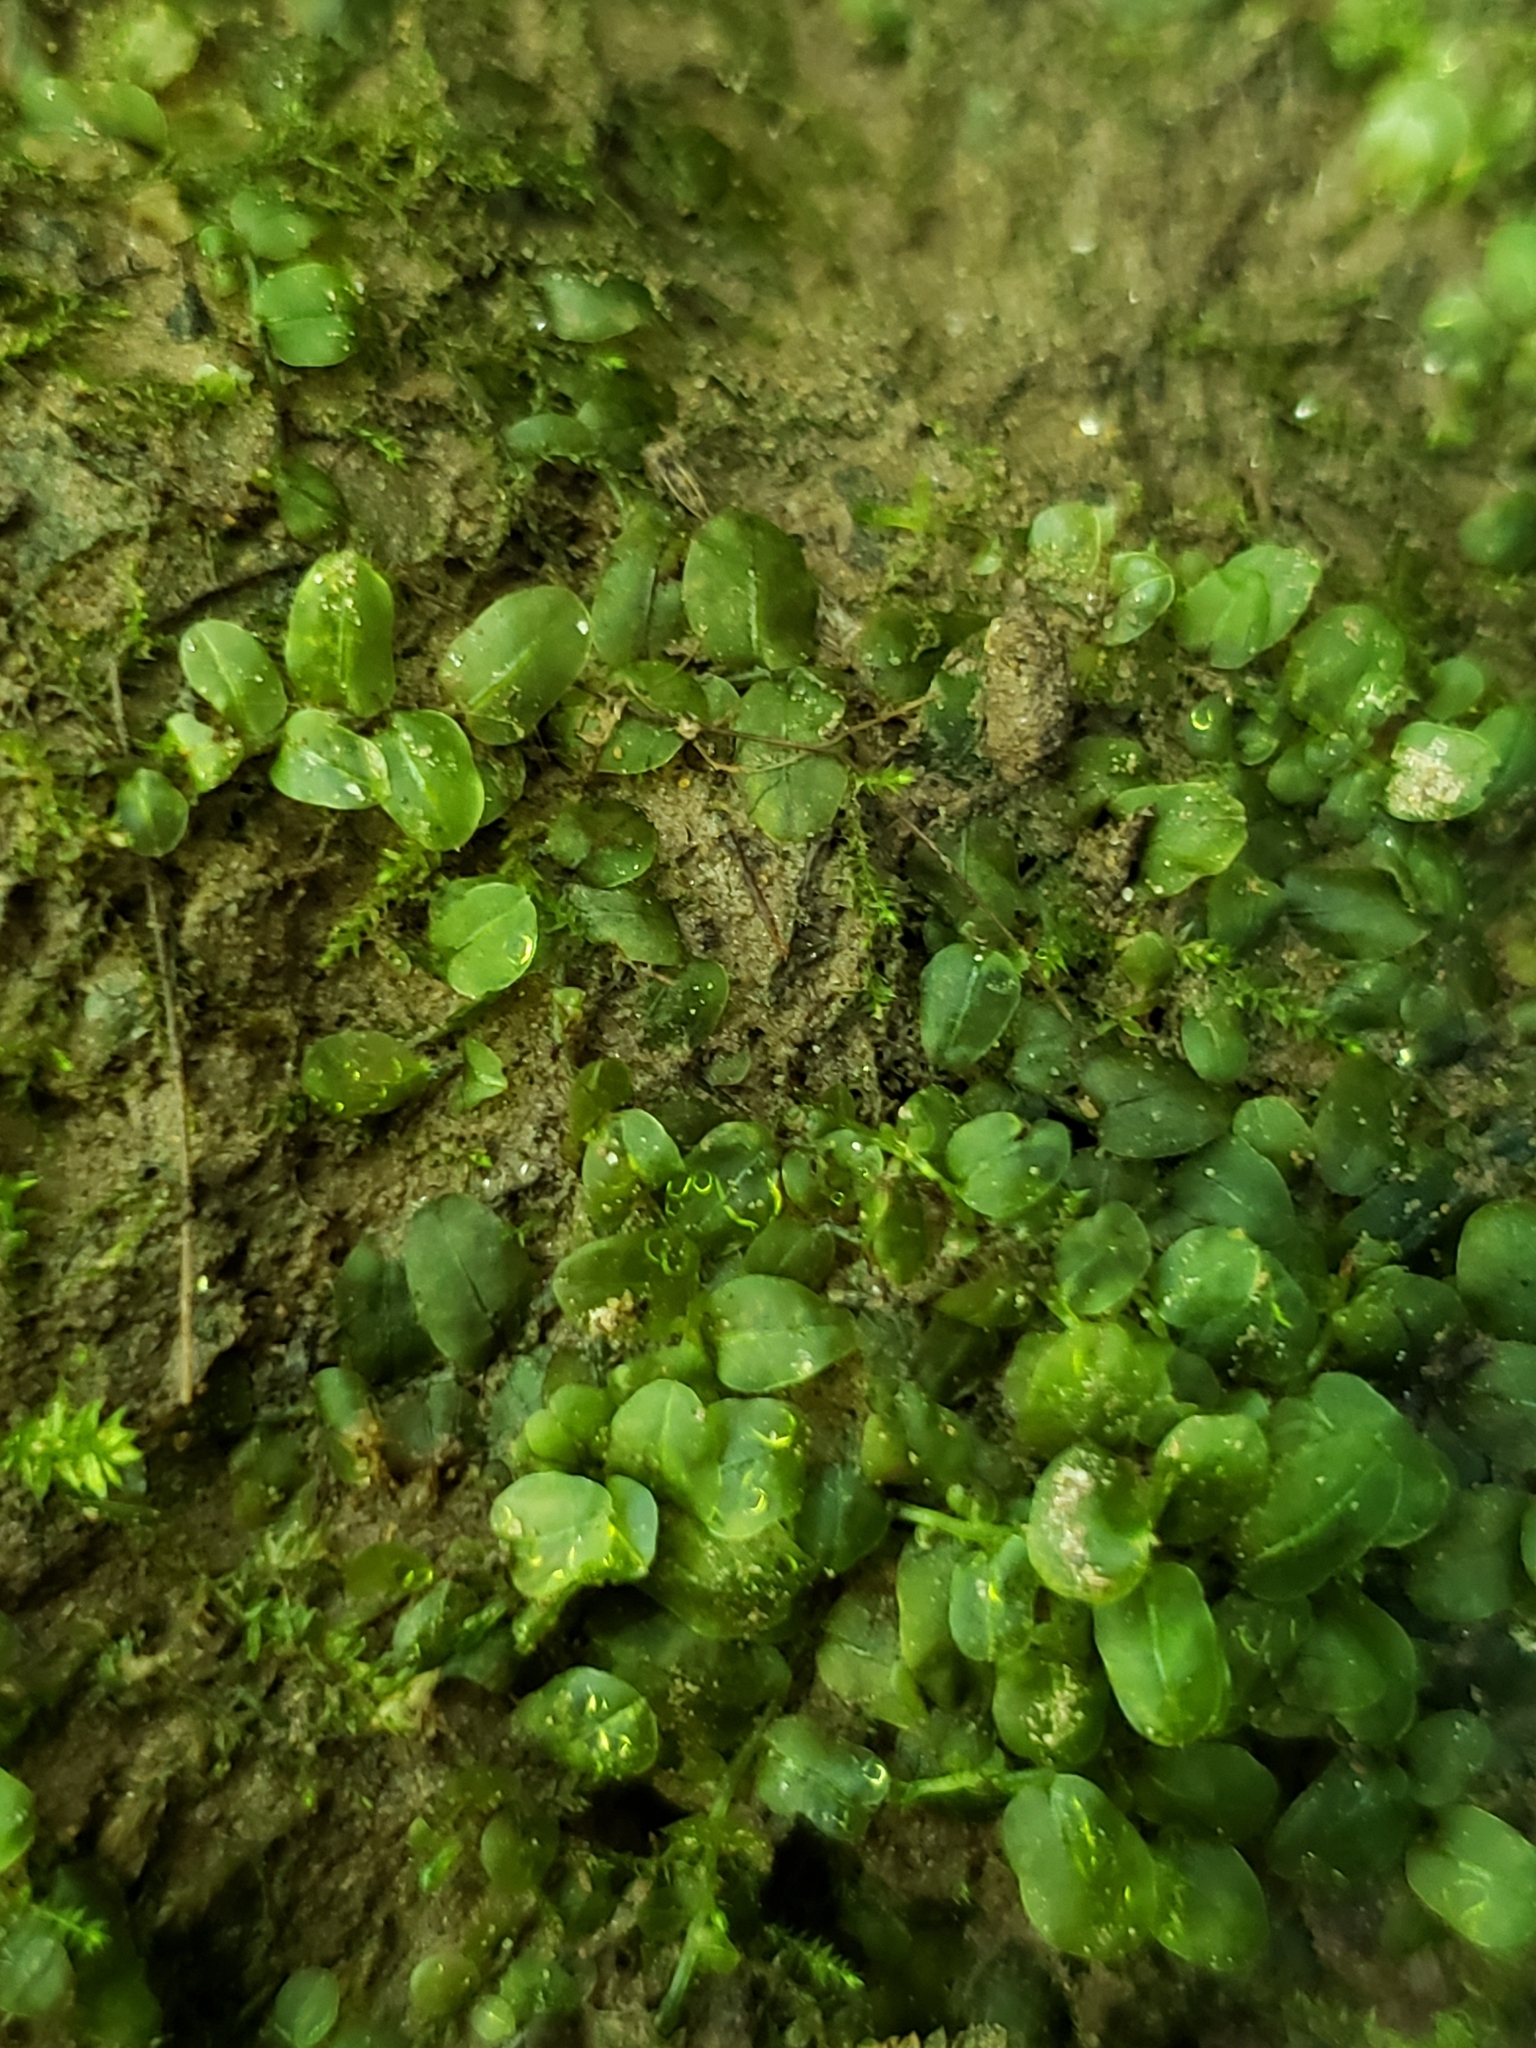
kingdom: Plantae
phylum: Bryophyta
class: Bryopsida
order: Bryales
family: Mniaceae
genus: Rhizomnium
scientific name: Rhizomnium punctatum
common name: Dotted leafy moss
